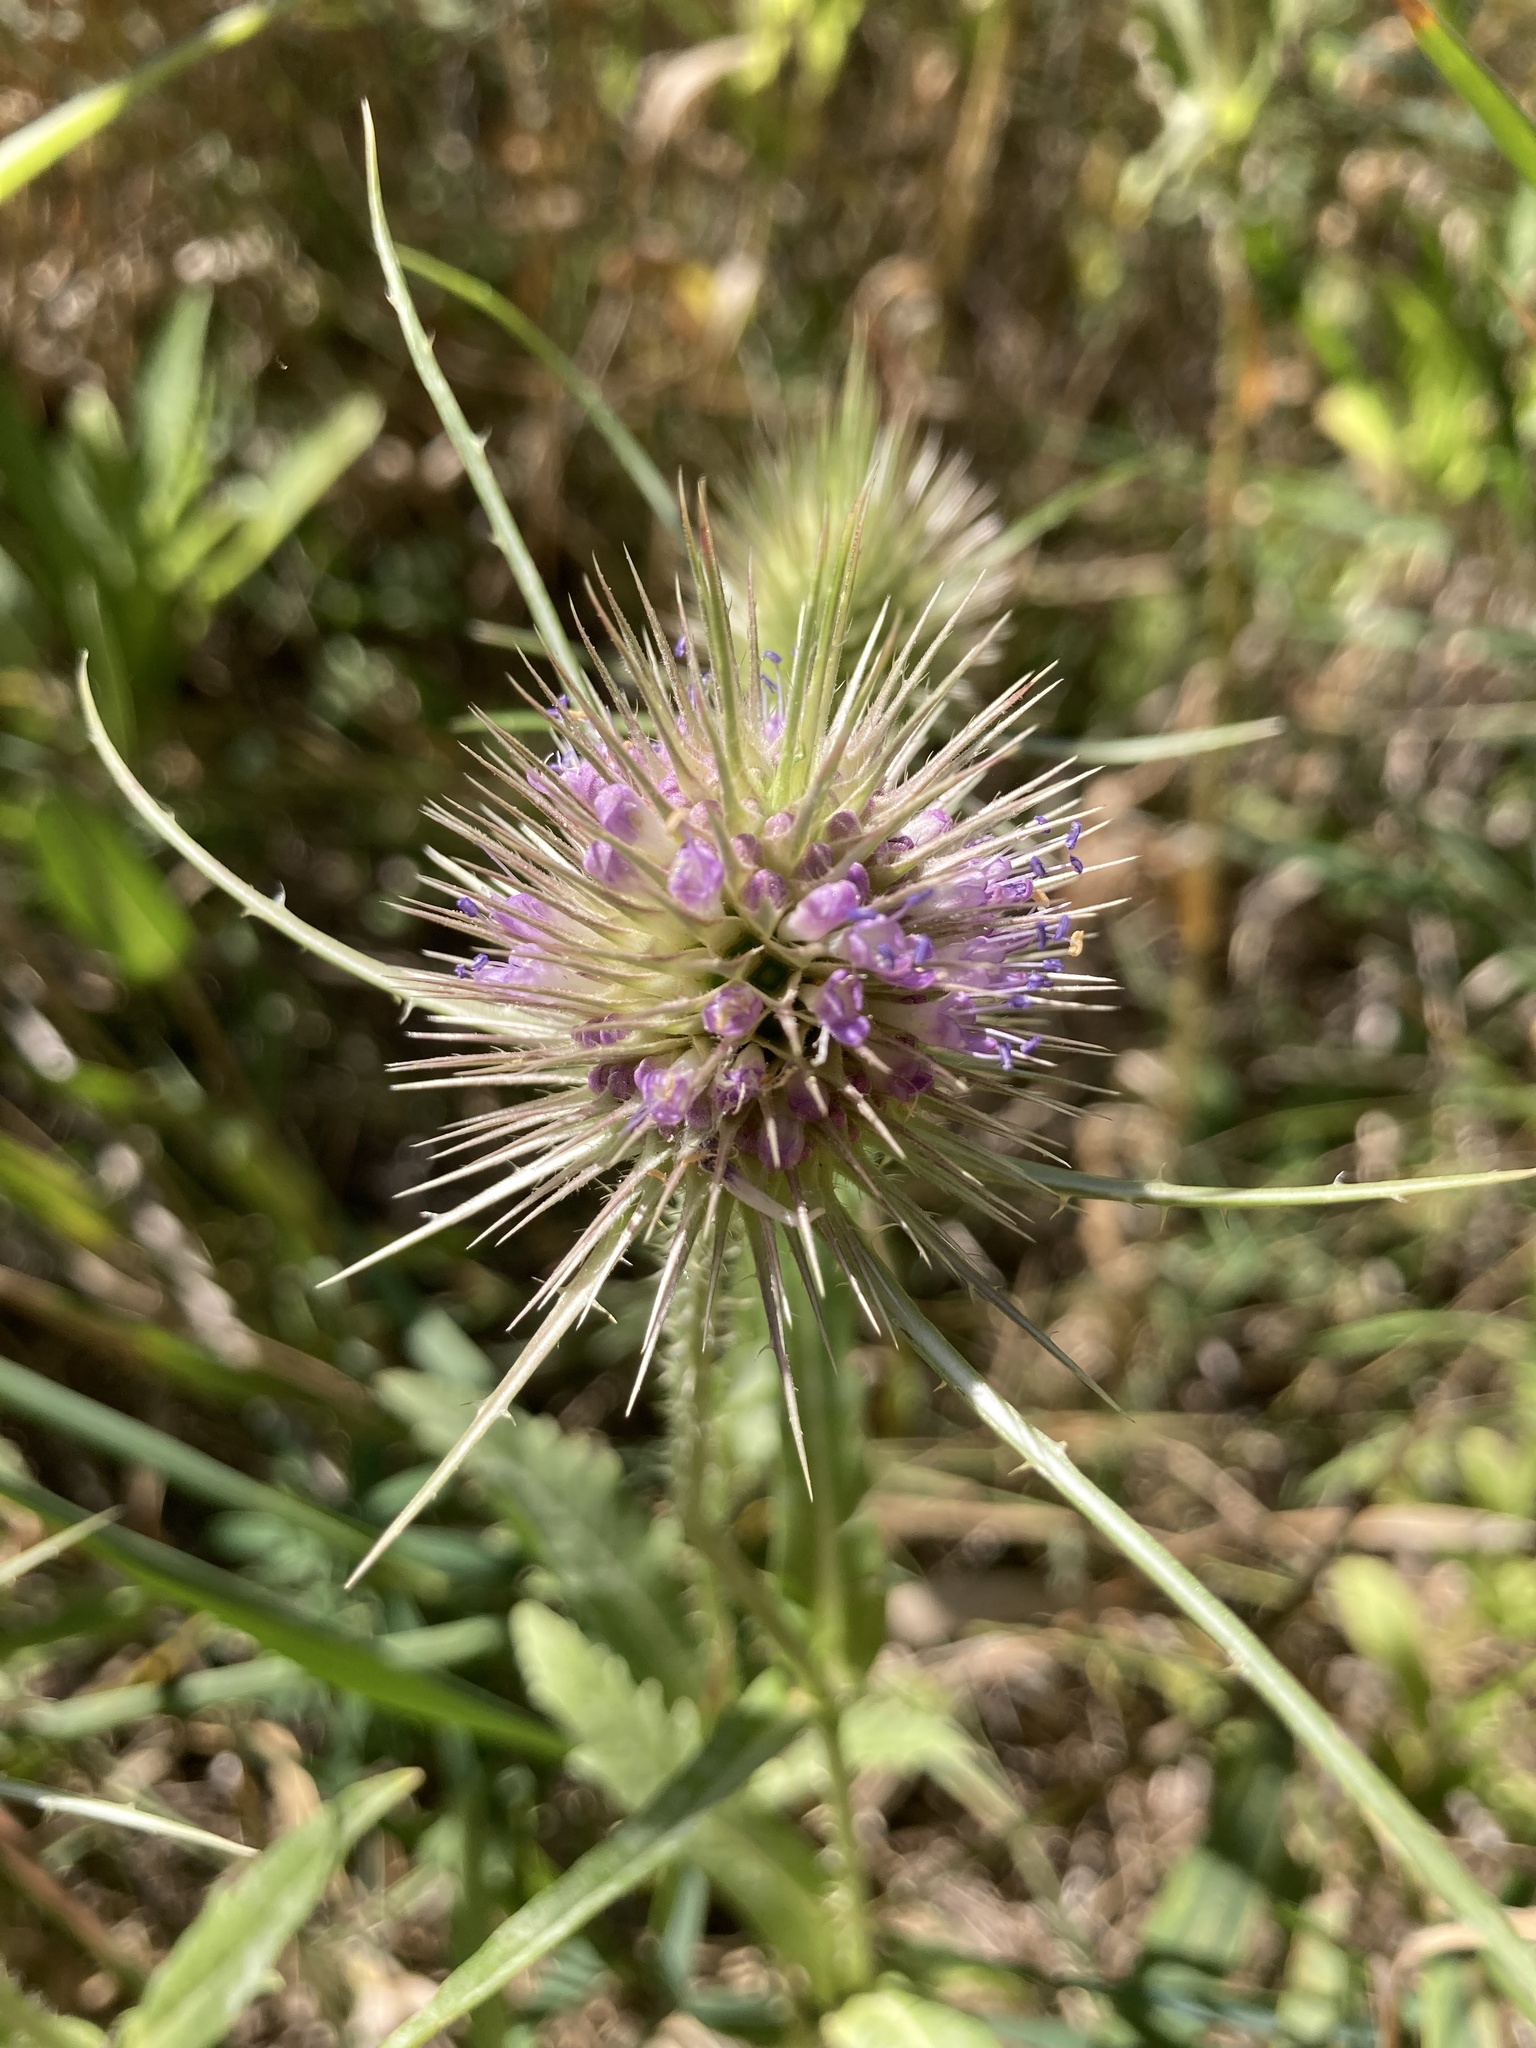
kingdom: Plantae
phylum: Tracheophyta
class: Magnoliopsida
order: Dipsacales
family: Caprifoliaceae
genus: Dipsacus
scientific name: Dipsacus fullonum
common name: Teasel
